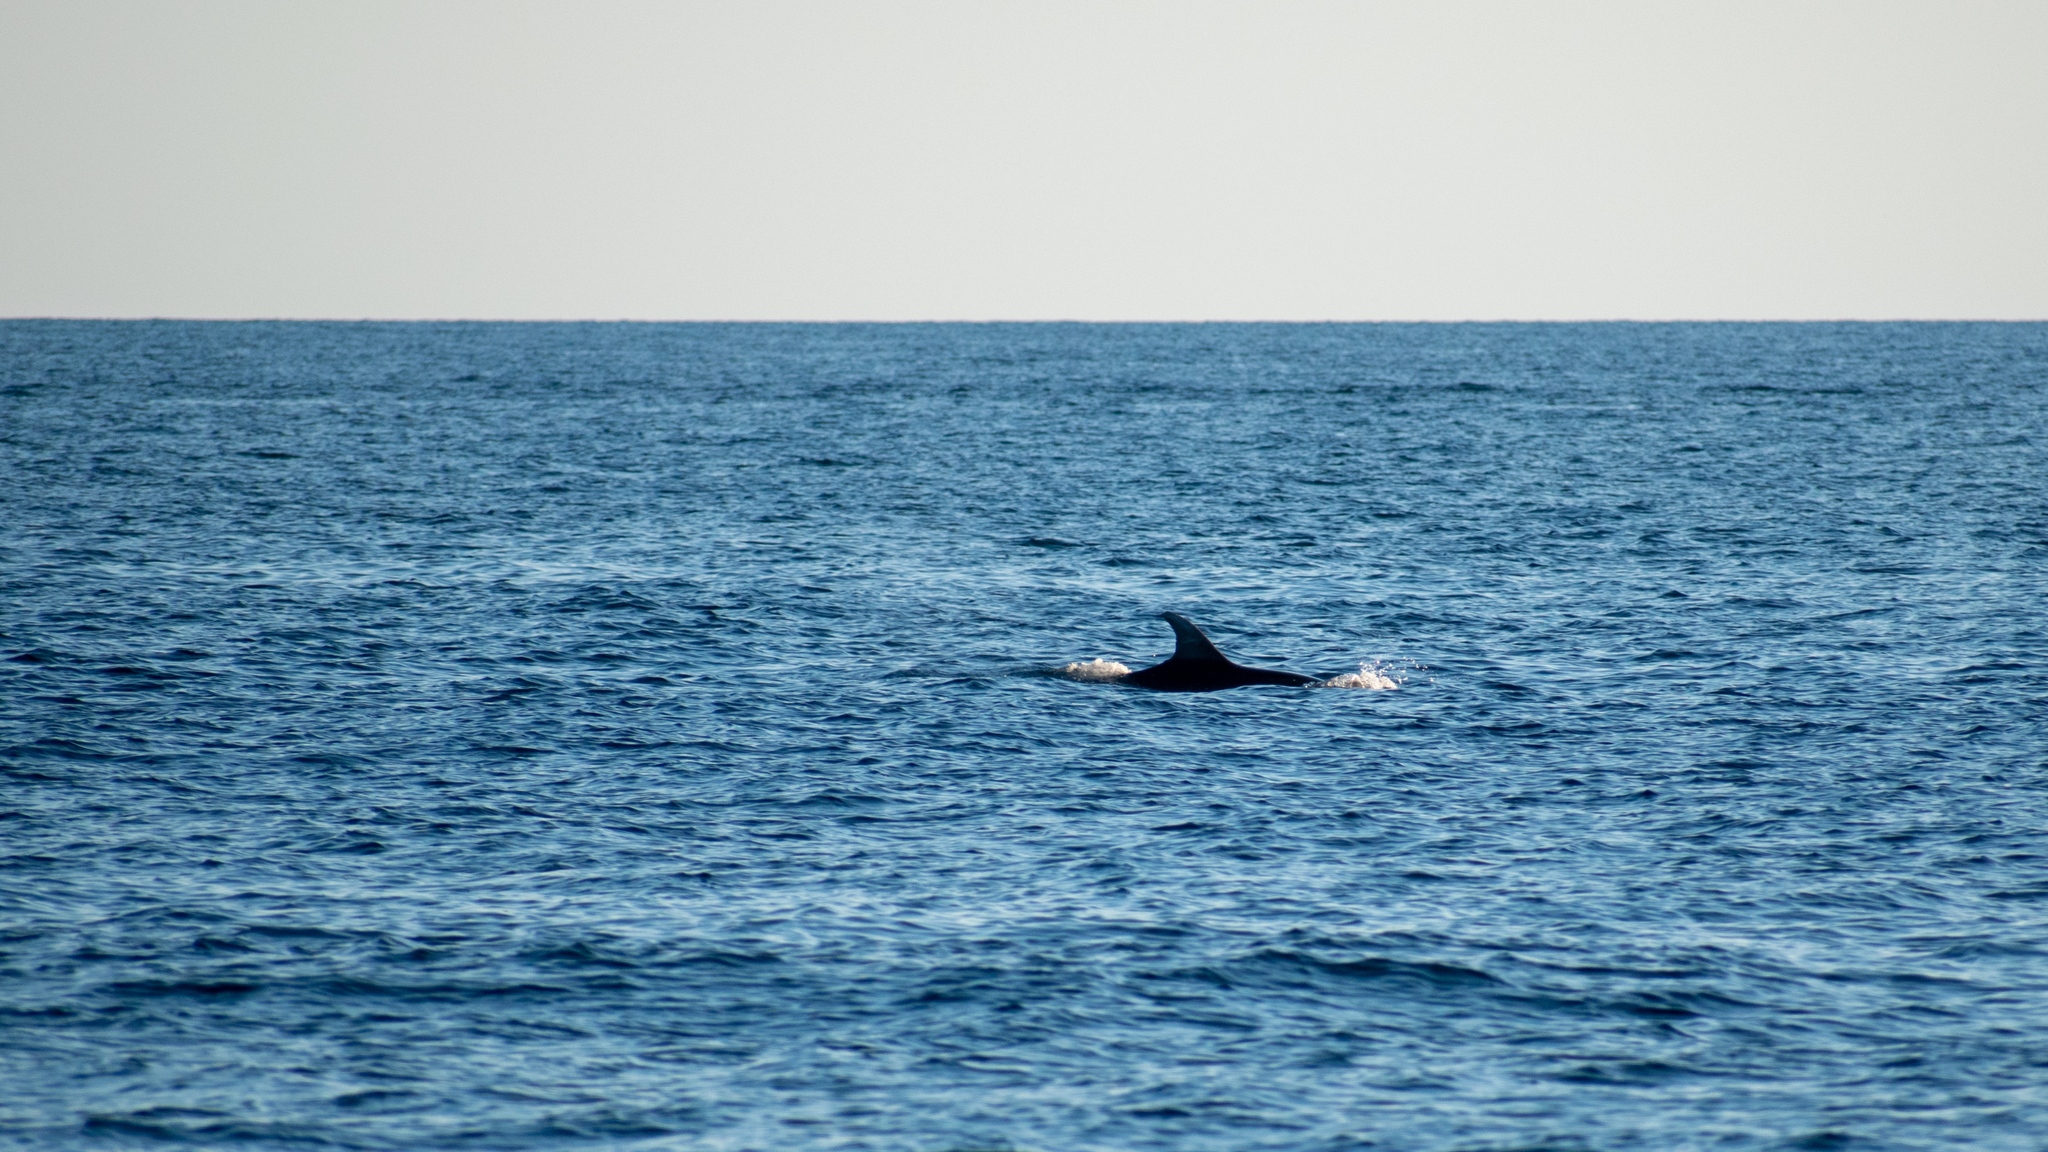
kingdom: Animalia
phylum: Chordata
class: Mammalia
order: Cetacea
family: Delphinidae
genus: Tursiops
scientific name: Tursiops truncatus
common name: Bottlenose dolphin
